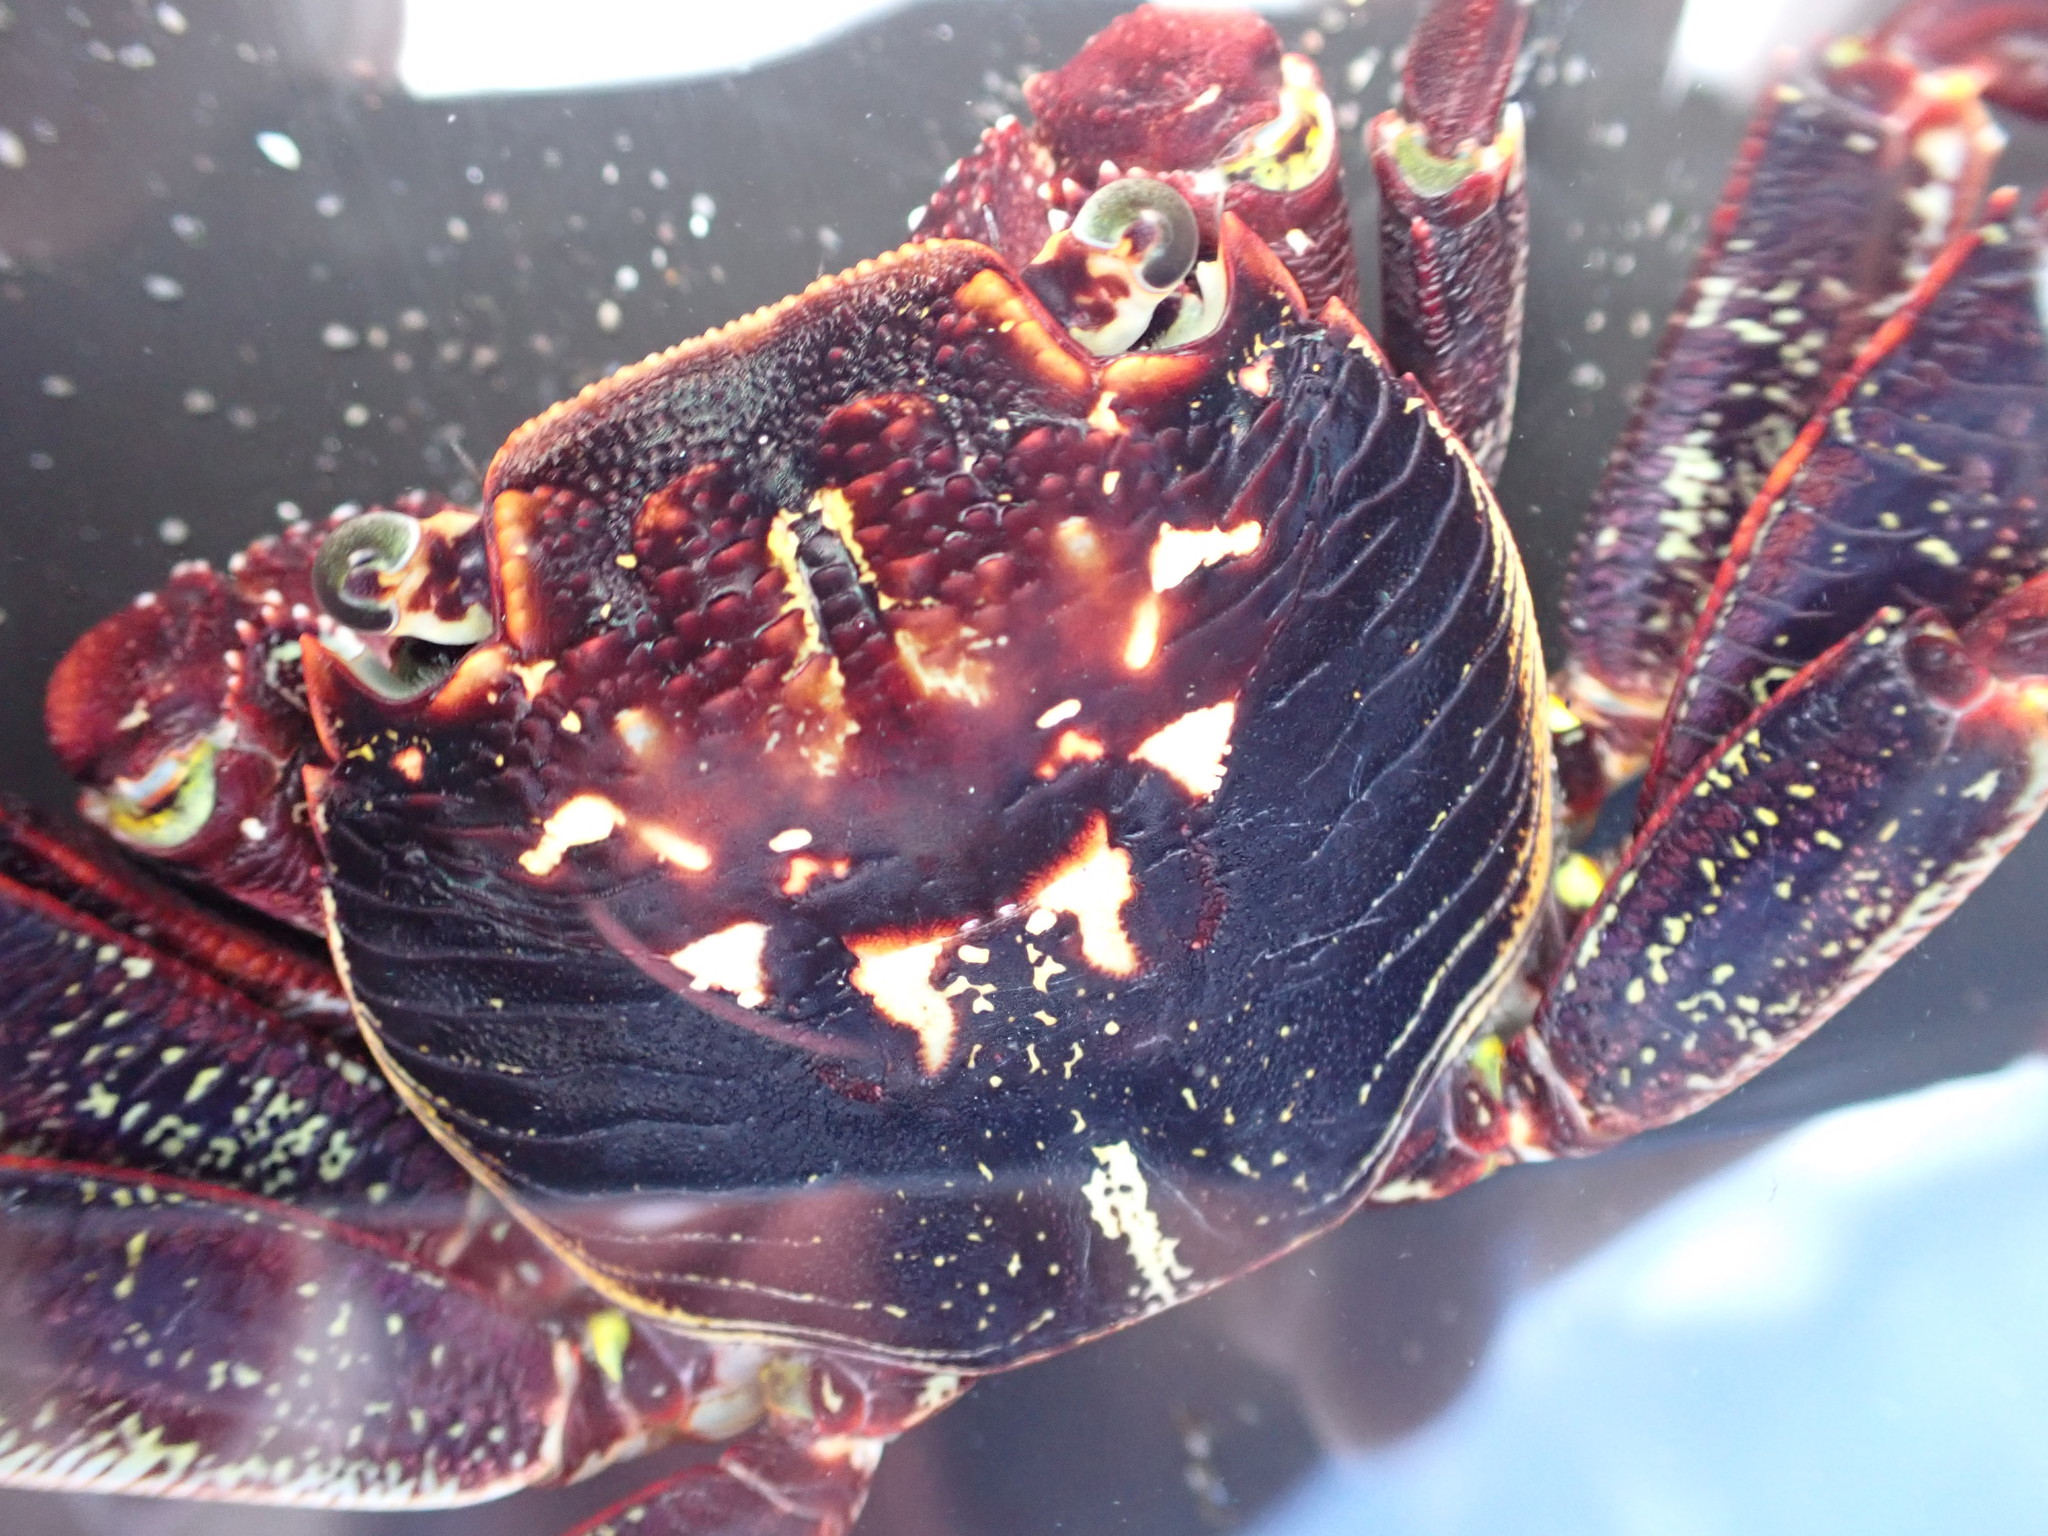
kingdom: Animalia
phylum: Arthropoda
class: Malacostraca
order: Decapoda
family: Grapsidae
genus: Leptograpsus
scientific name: Leptograpsus variegatus
